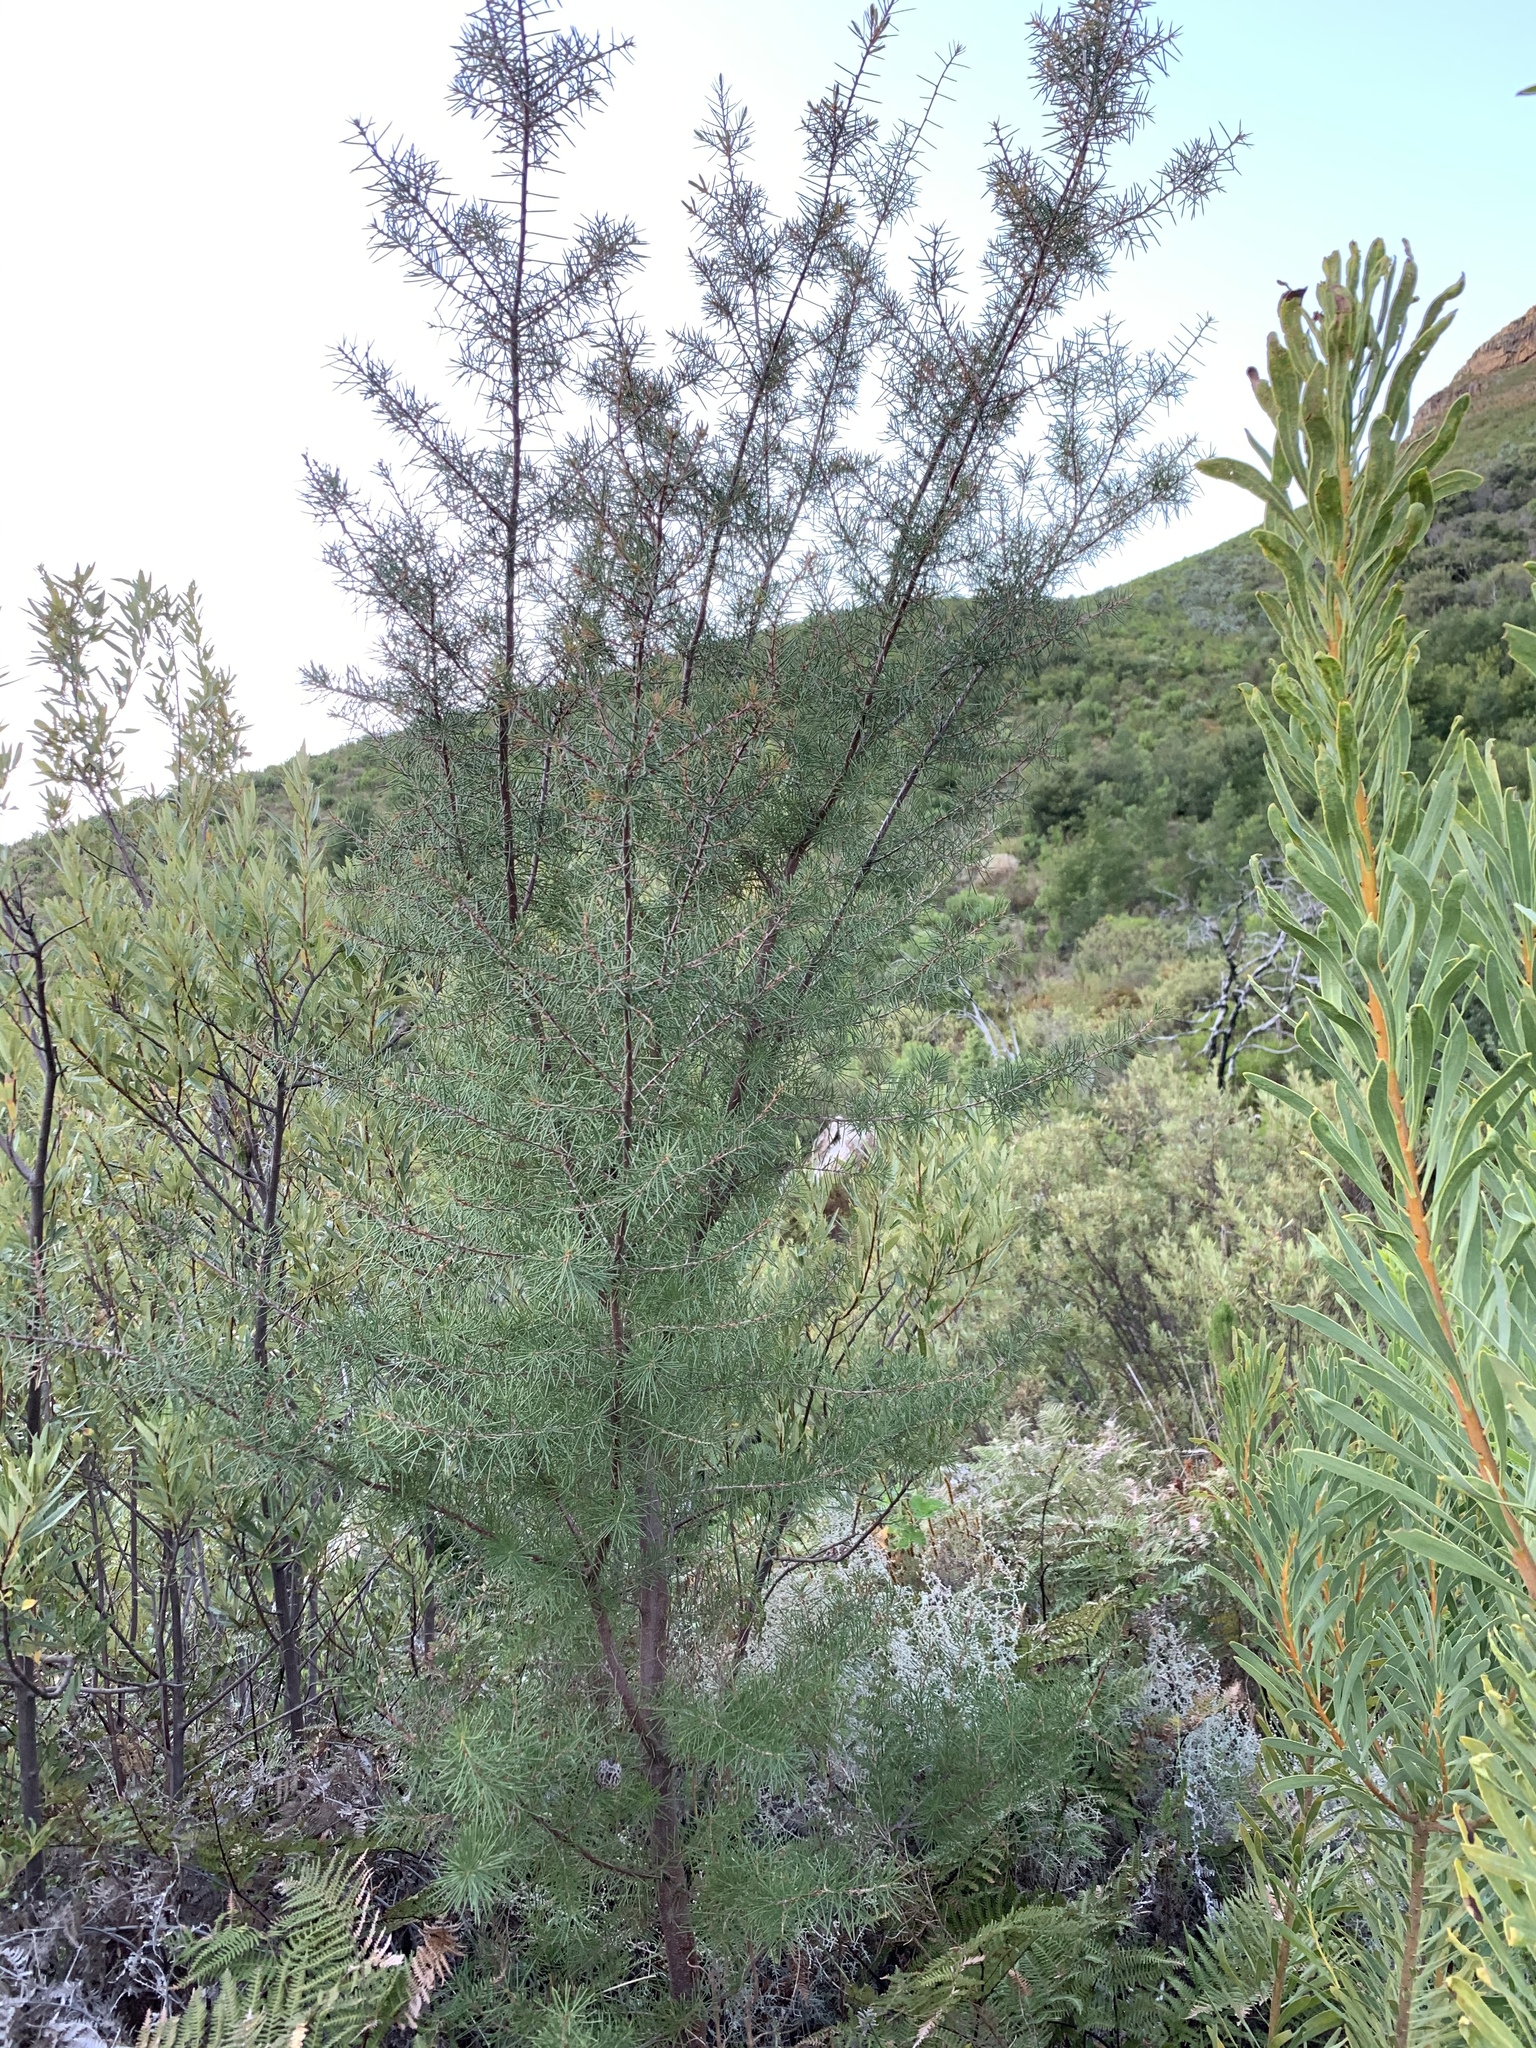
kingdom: Plantae
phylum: Tracheophyta
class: Magnoliopsida
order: Proteales
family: Proteaceae
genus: Hakea
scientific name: Hakea sericea
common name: Needle bush
